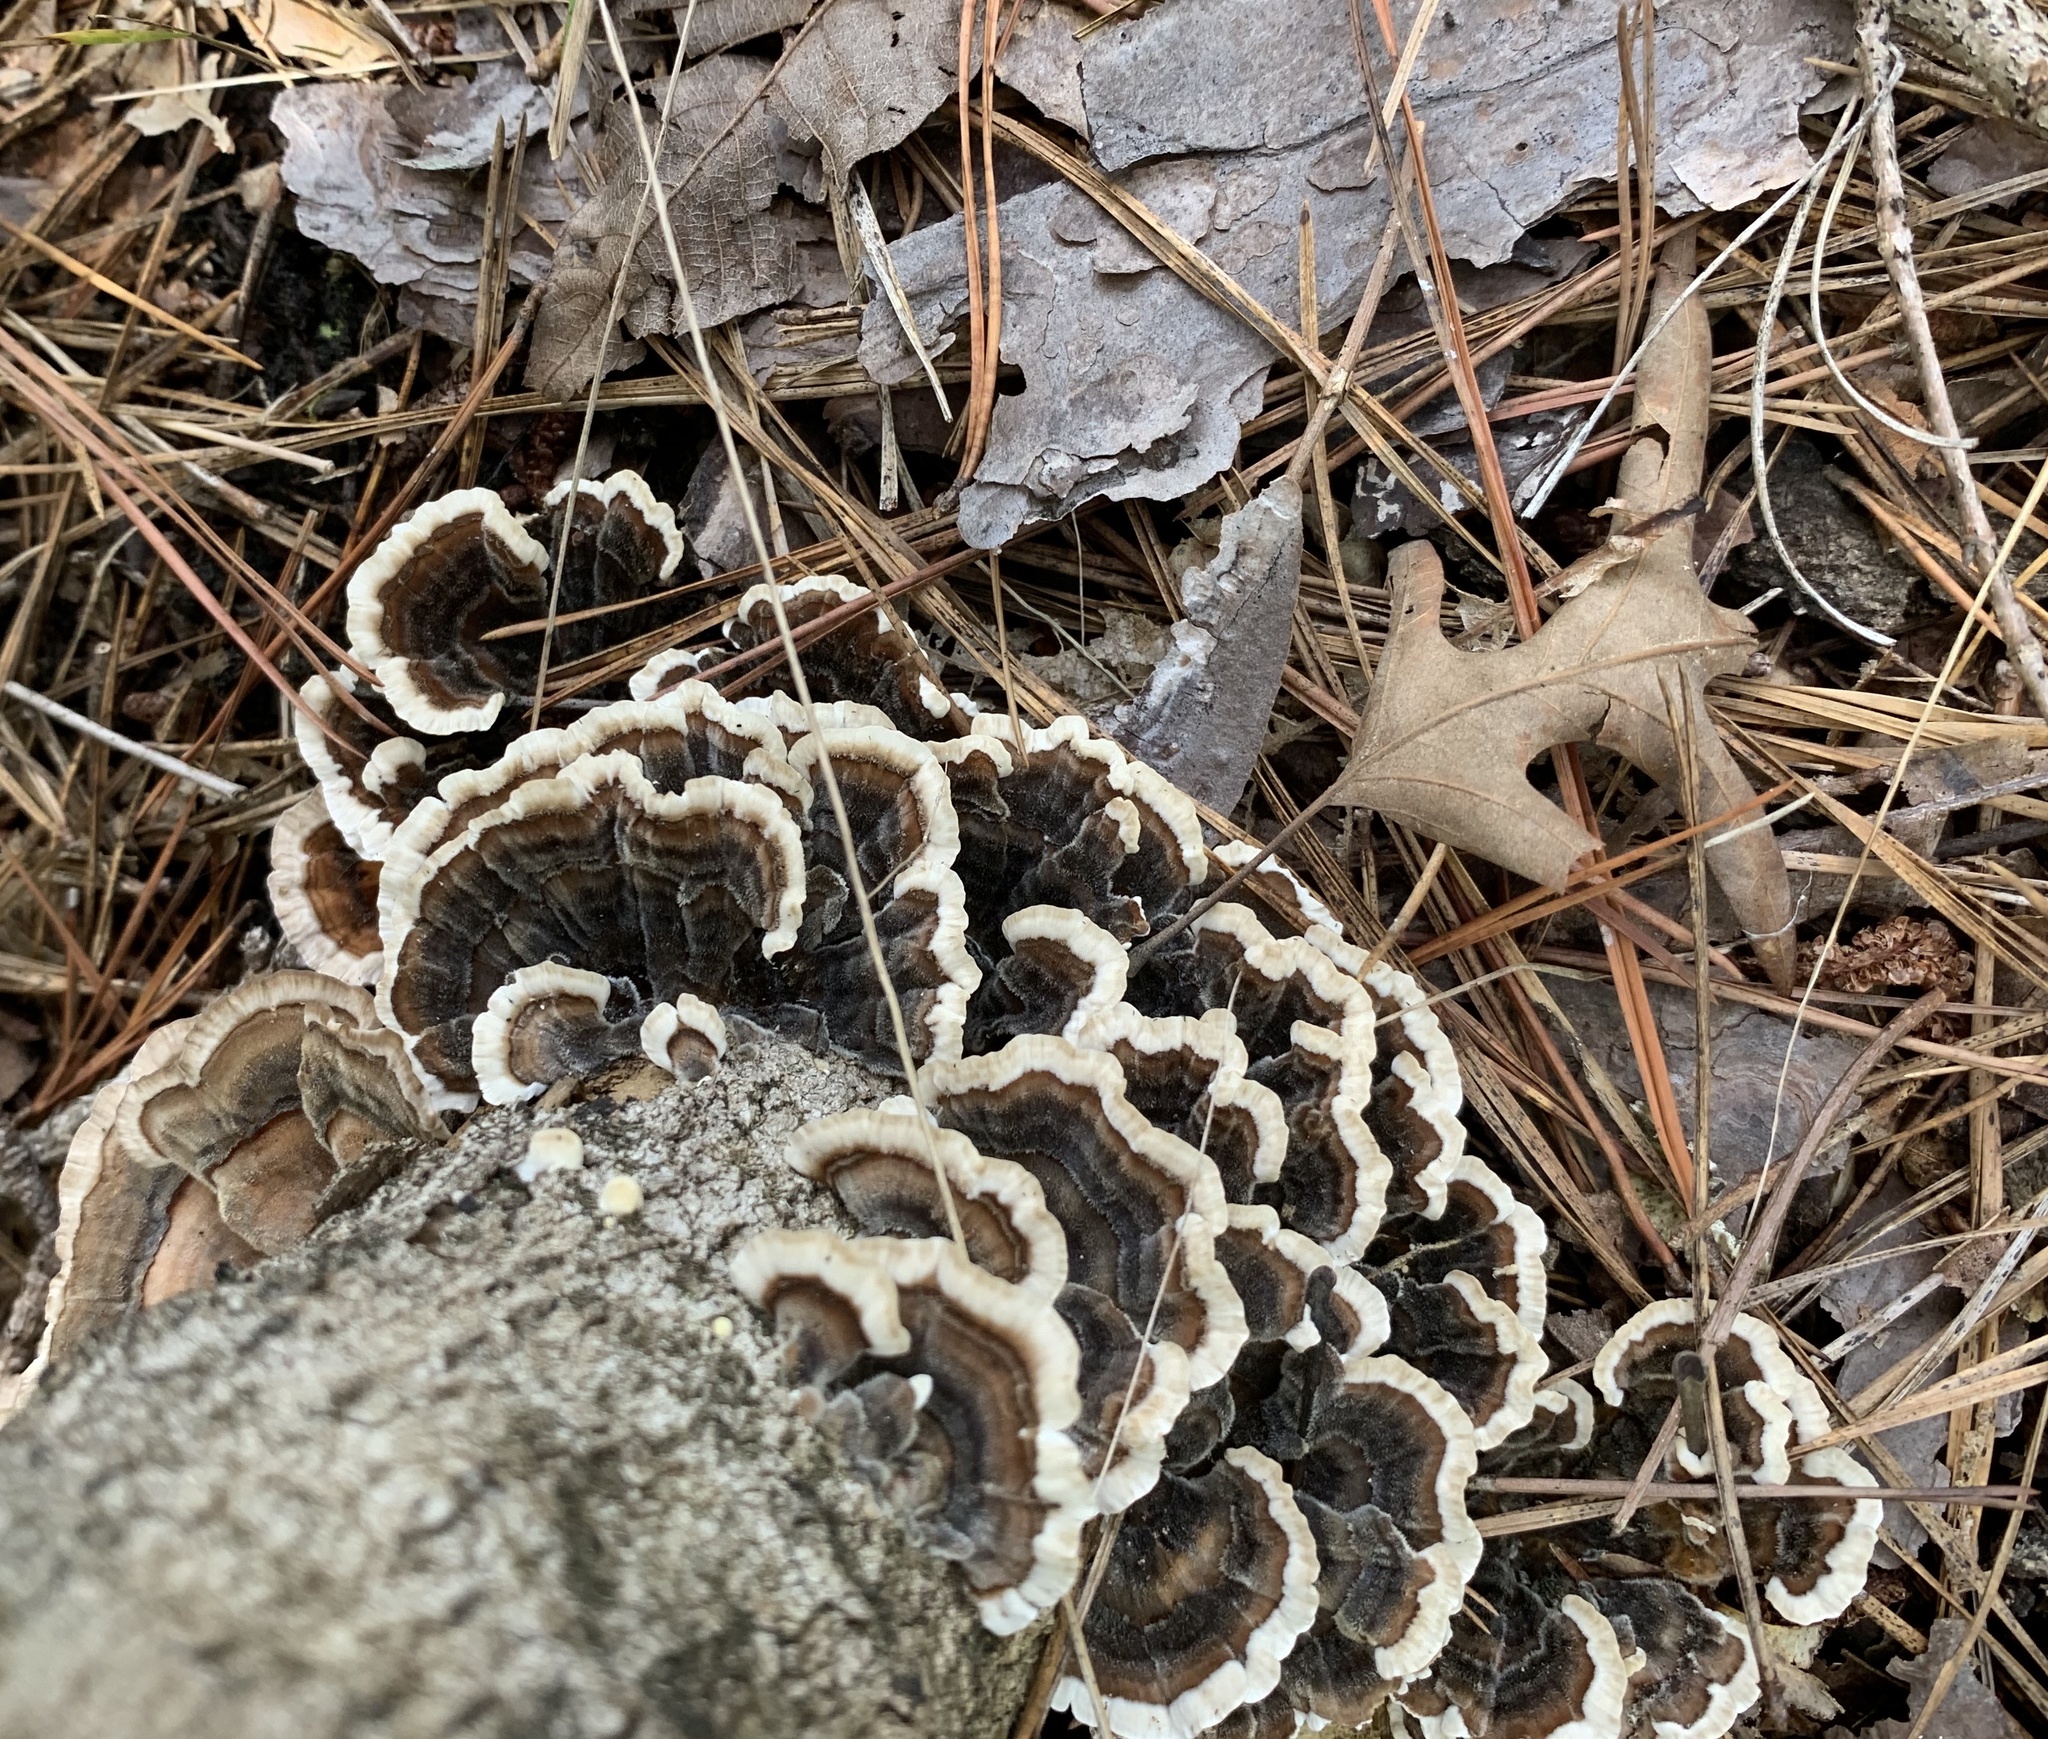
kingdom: Fungi
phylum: Basidiomycota
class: Agaricomycetes
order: Polyporales
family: Polyporaceae
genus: Trametes
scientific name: Trametes versicolor
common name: Turkeytail
